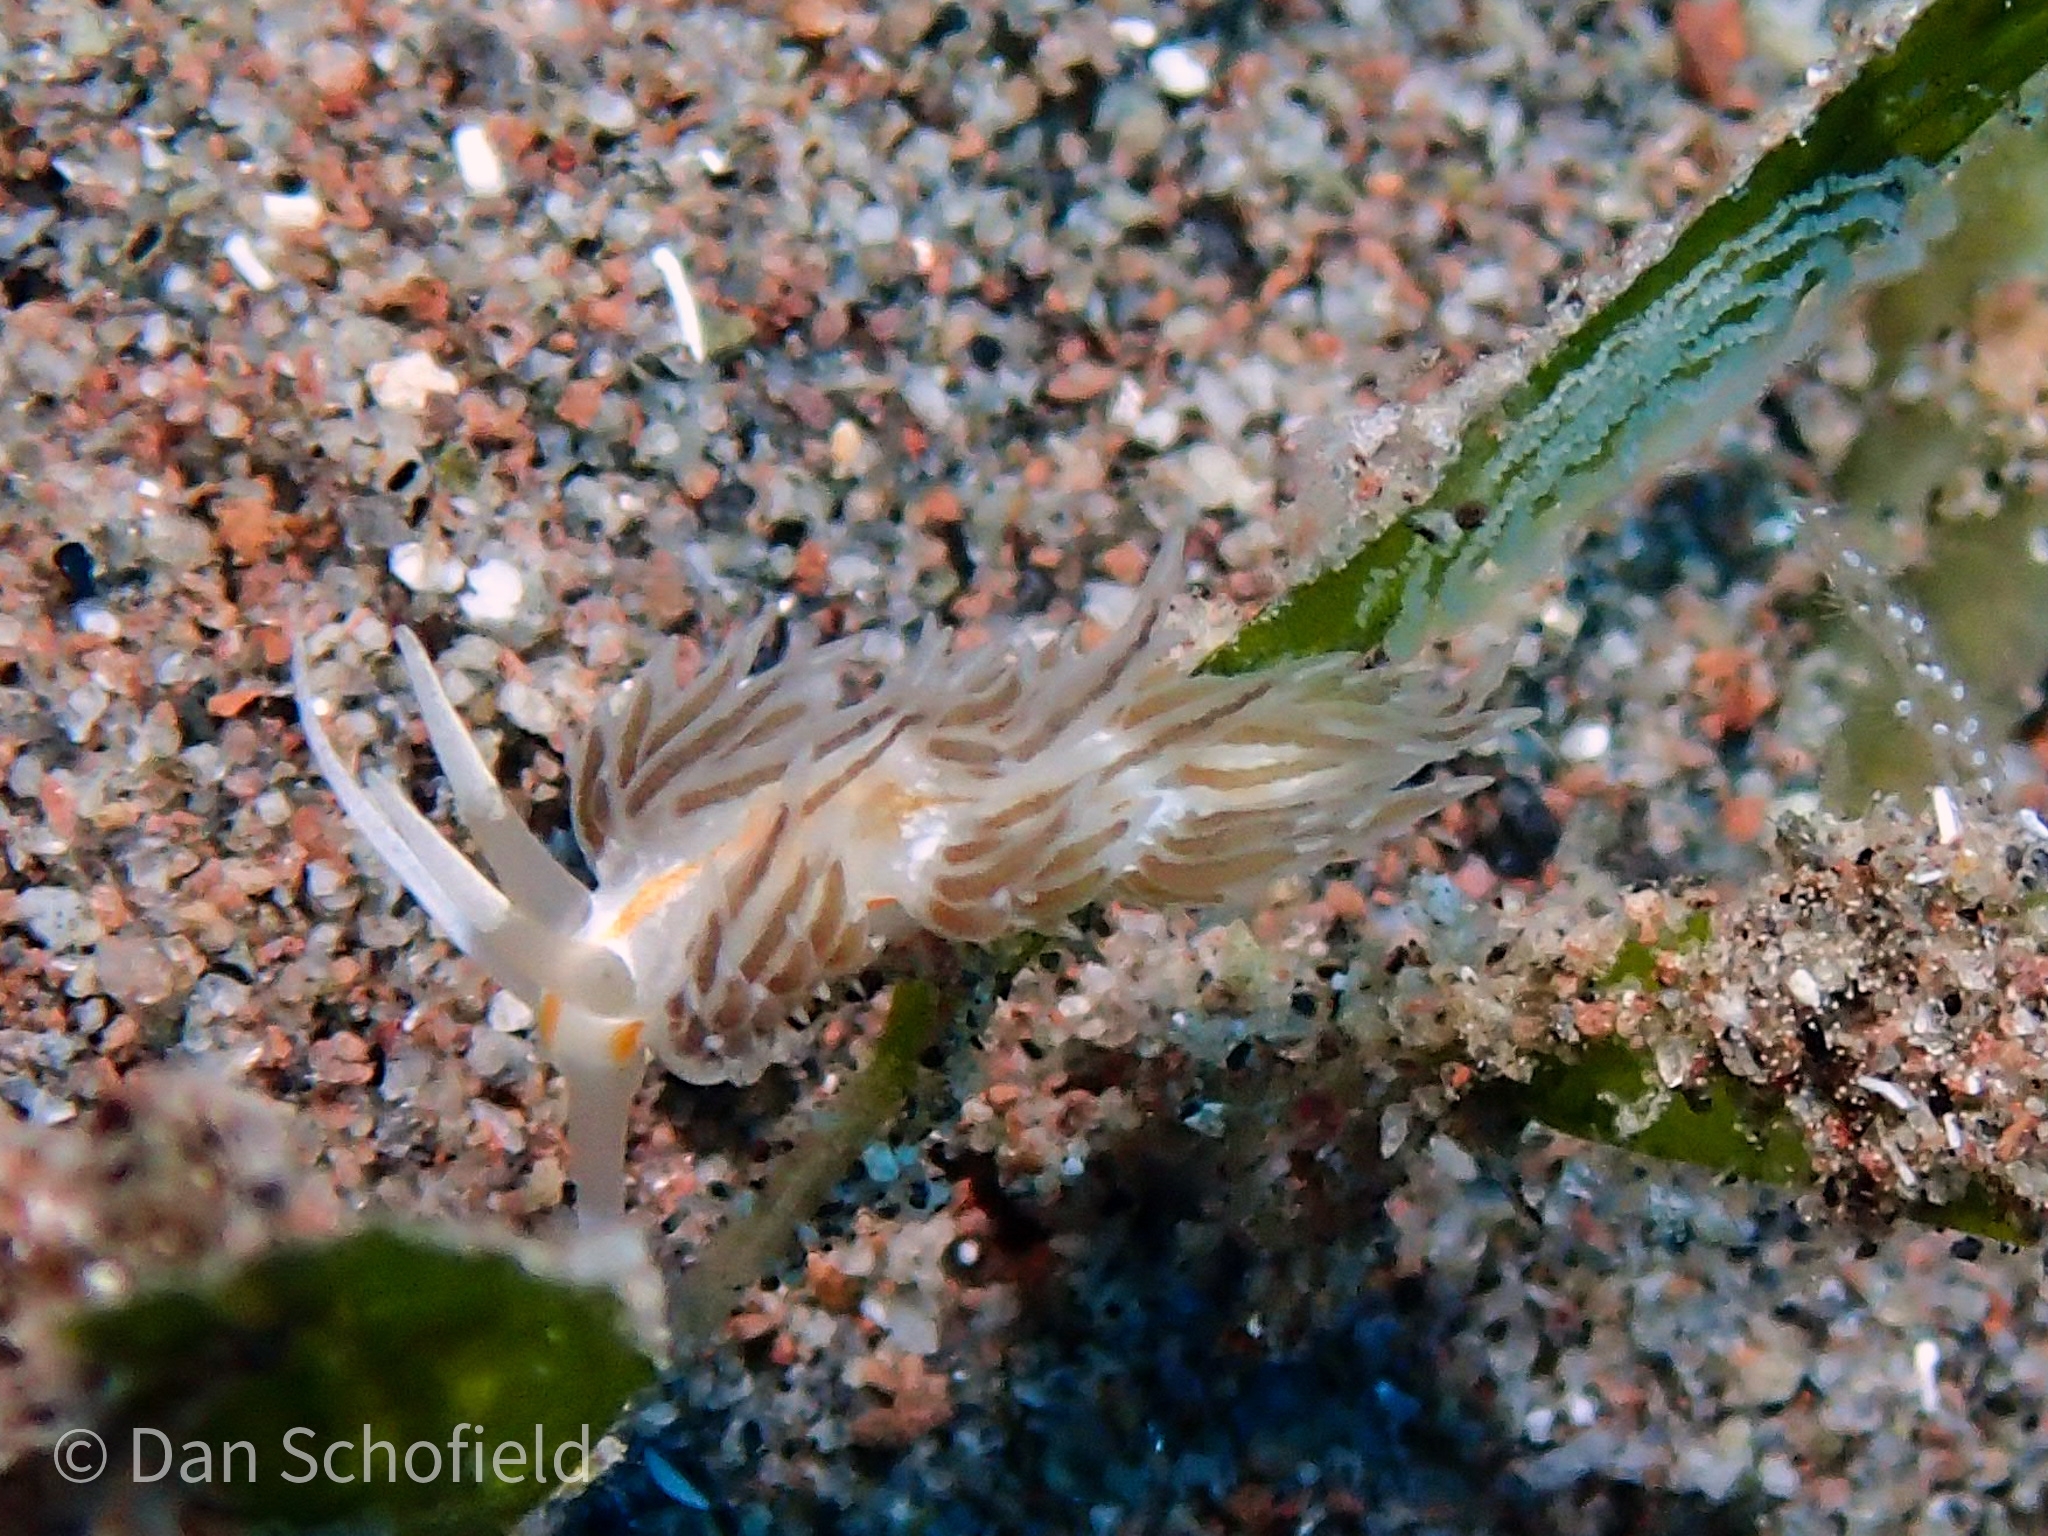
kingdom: Animalia
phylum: Mollusca
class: Gastropoda
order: Nudibranchia
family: Facelinidae
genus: Cratena
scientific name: Cratena pilata
